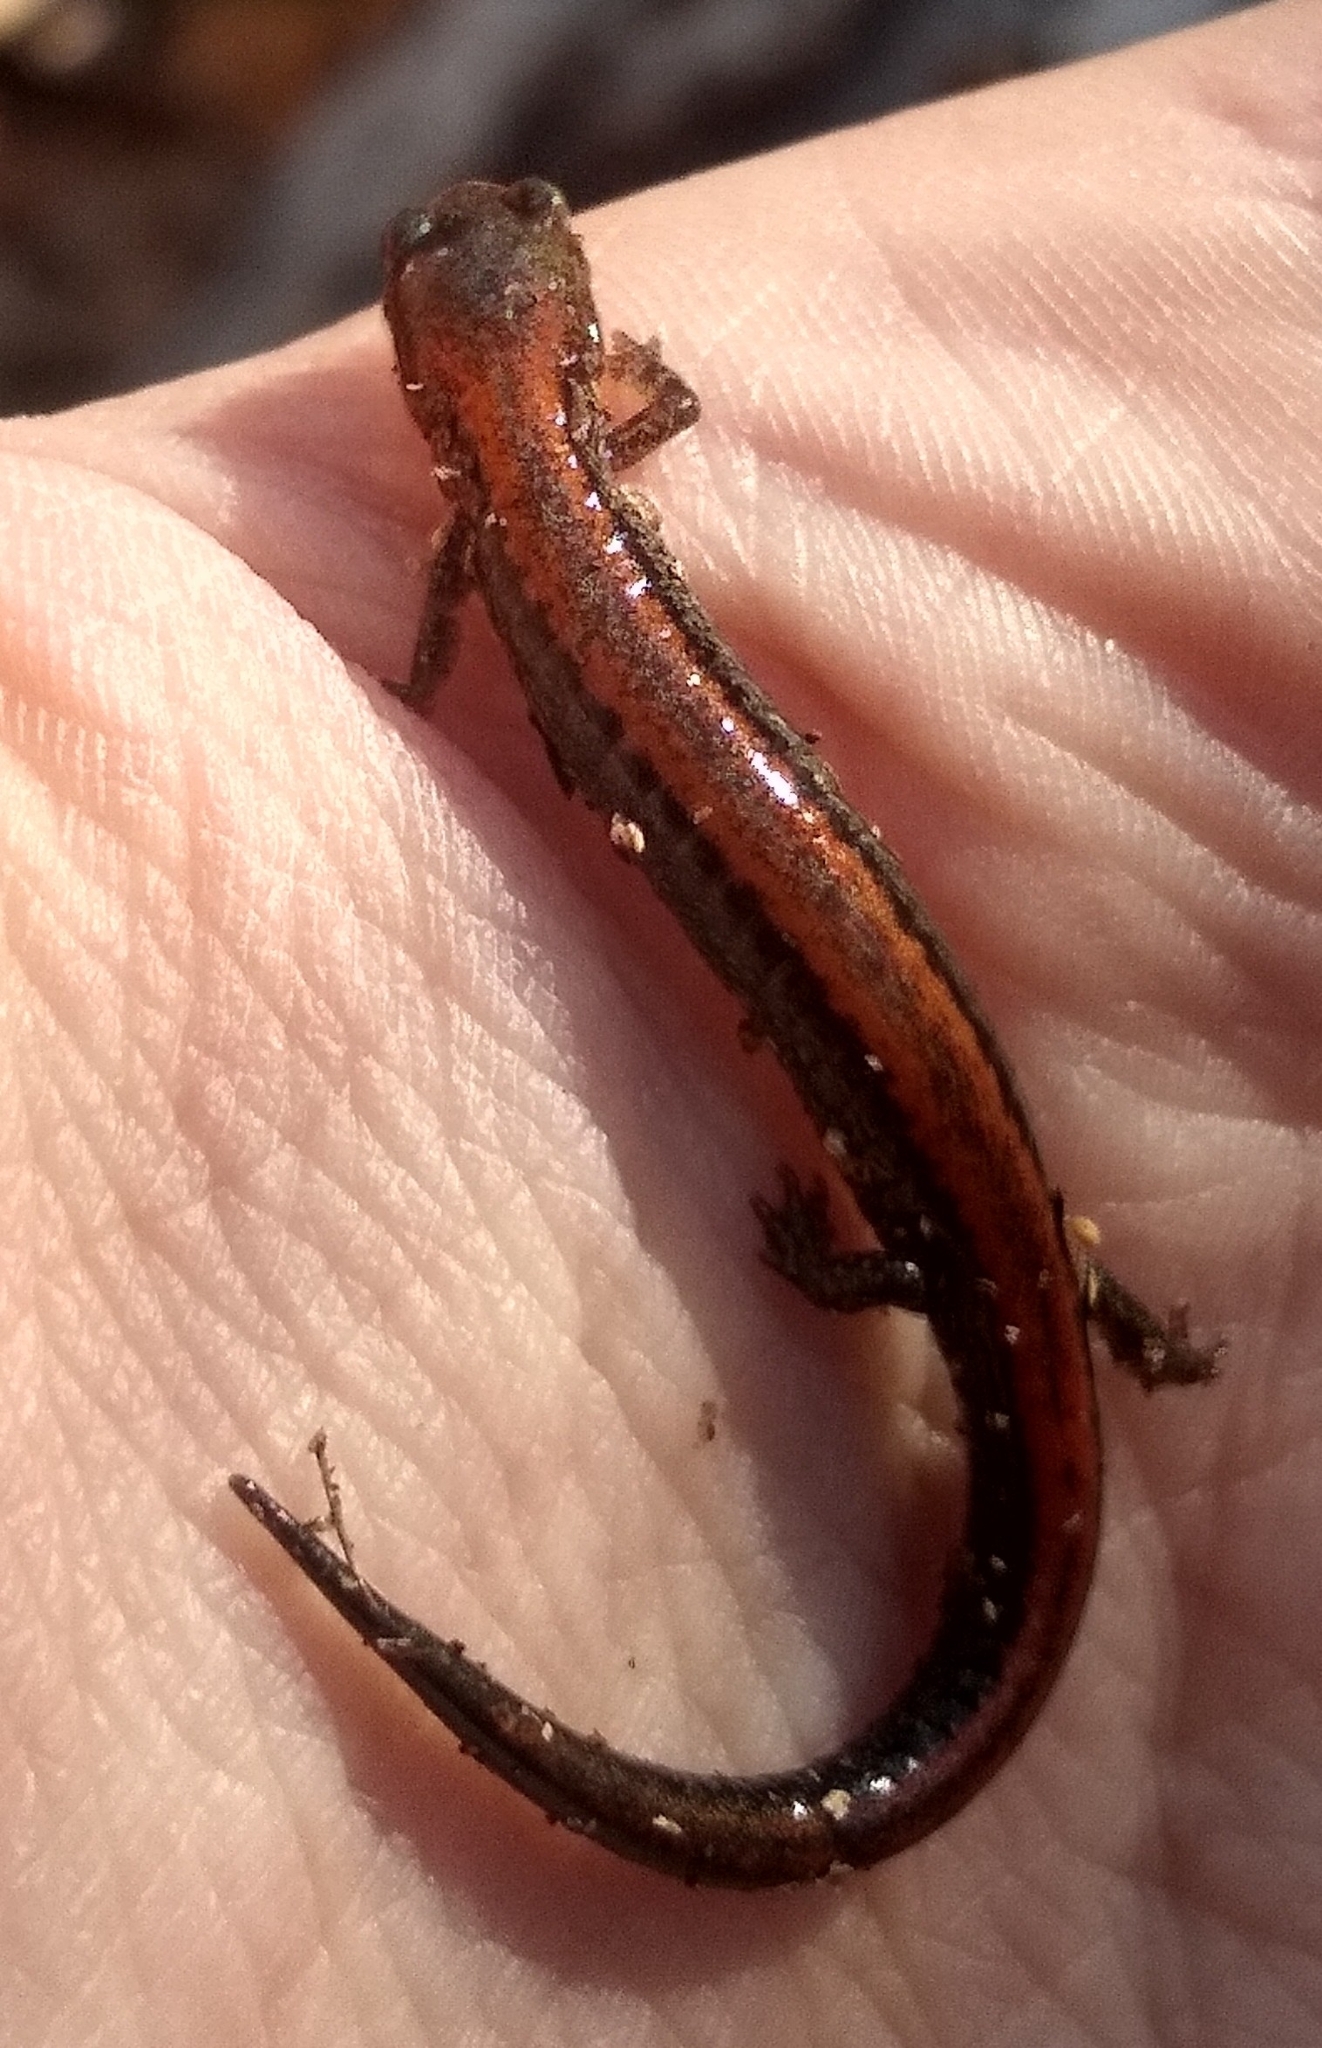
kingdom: Animalia
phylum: Chordata
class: Amphibia
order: Caudata
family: Plethodontidae
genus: Plethodon
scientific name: Plethodon cinereus
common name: Redback salamander
